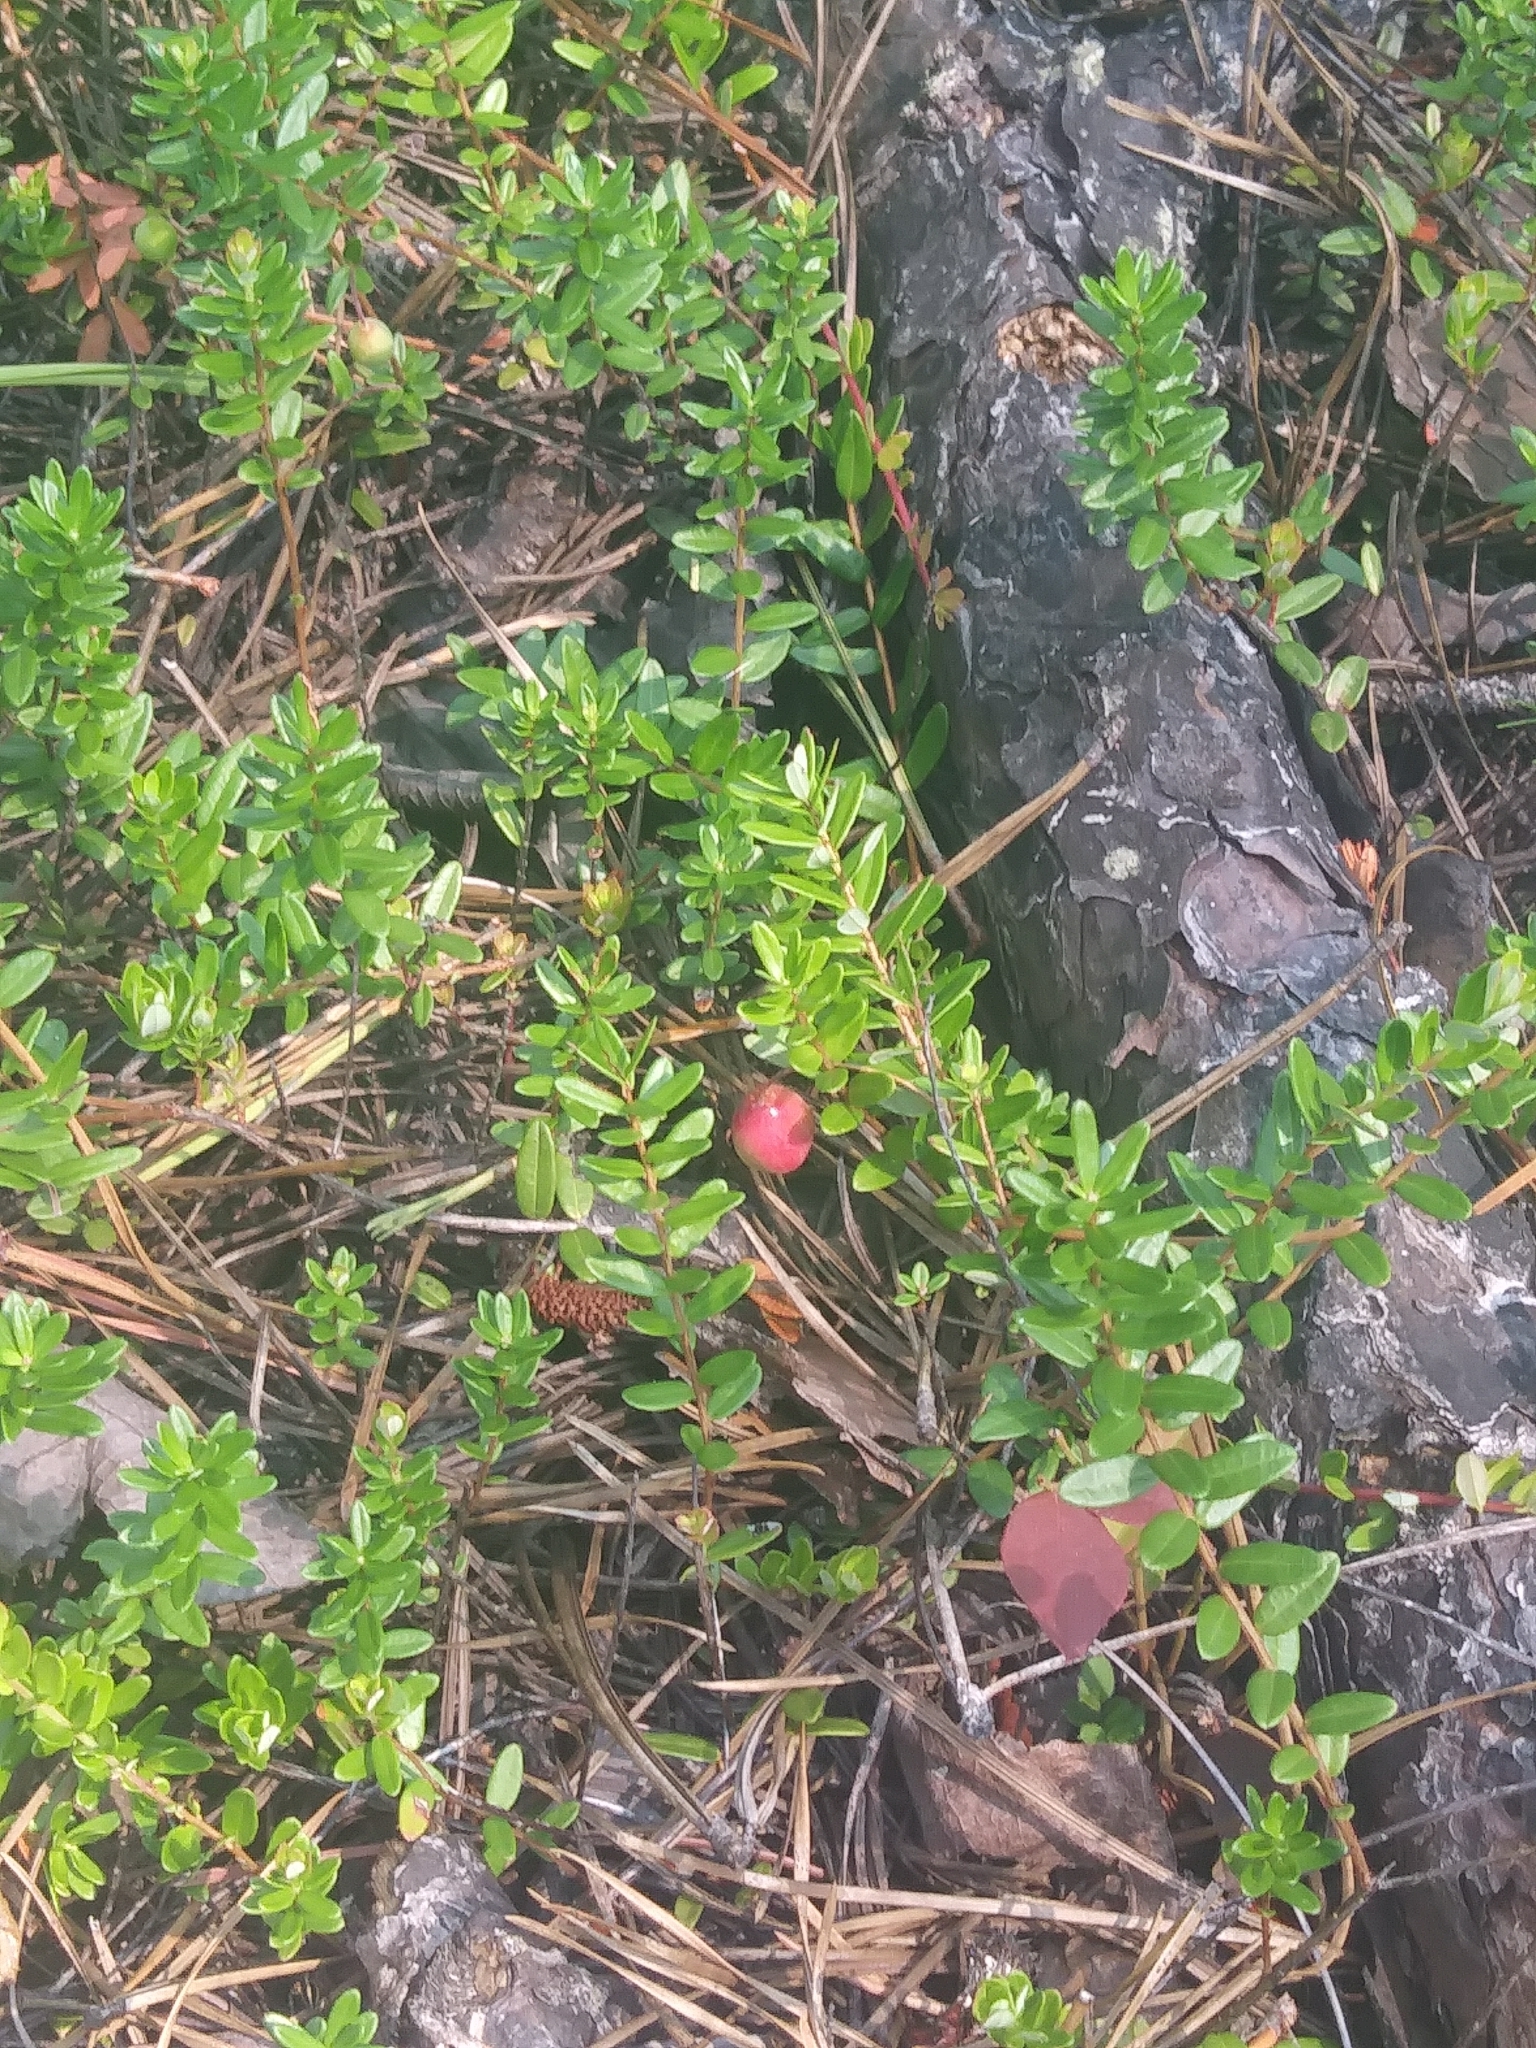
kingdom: Plantae
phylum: Tracheophyta
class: Magnoliopsida
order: Ericales
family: Ericaceae
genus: Vaccinium
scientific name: Vaccinium macrocarpon
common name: American cranberry
